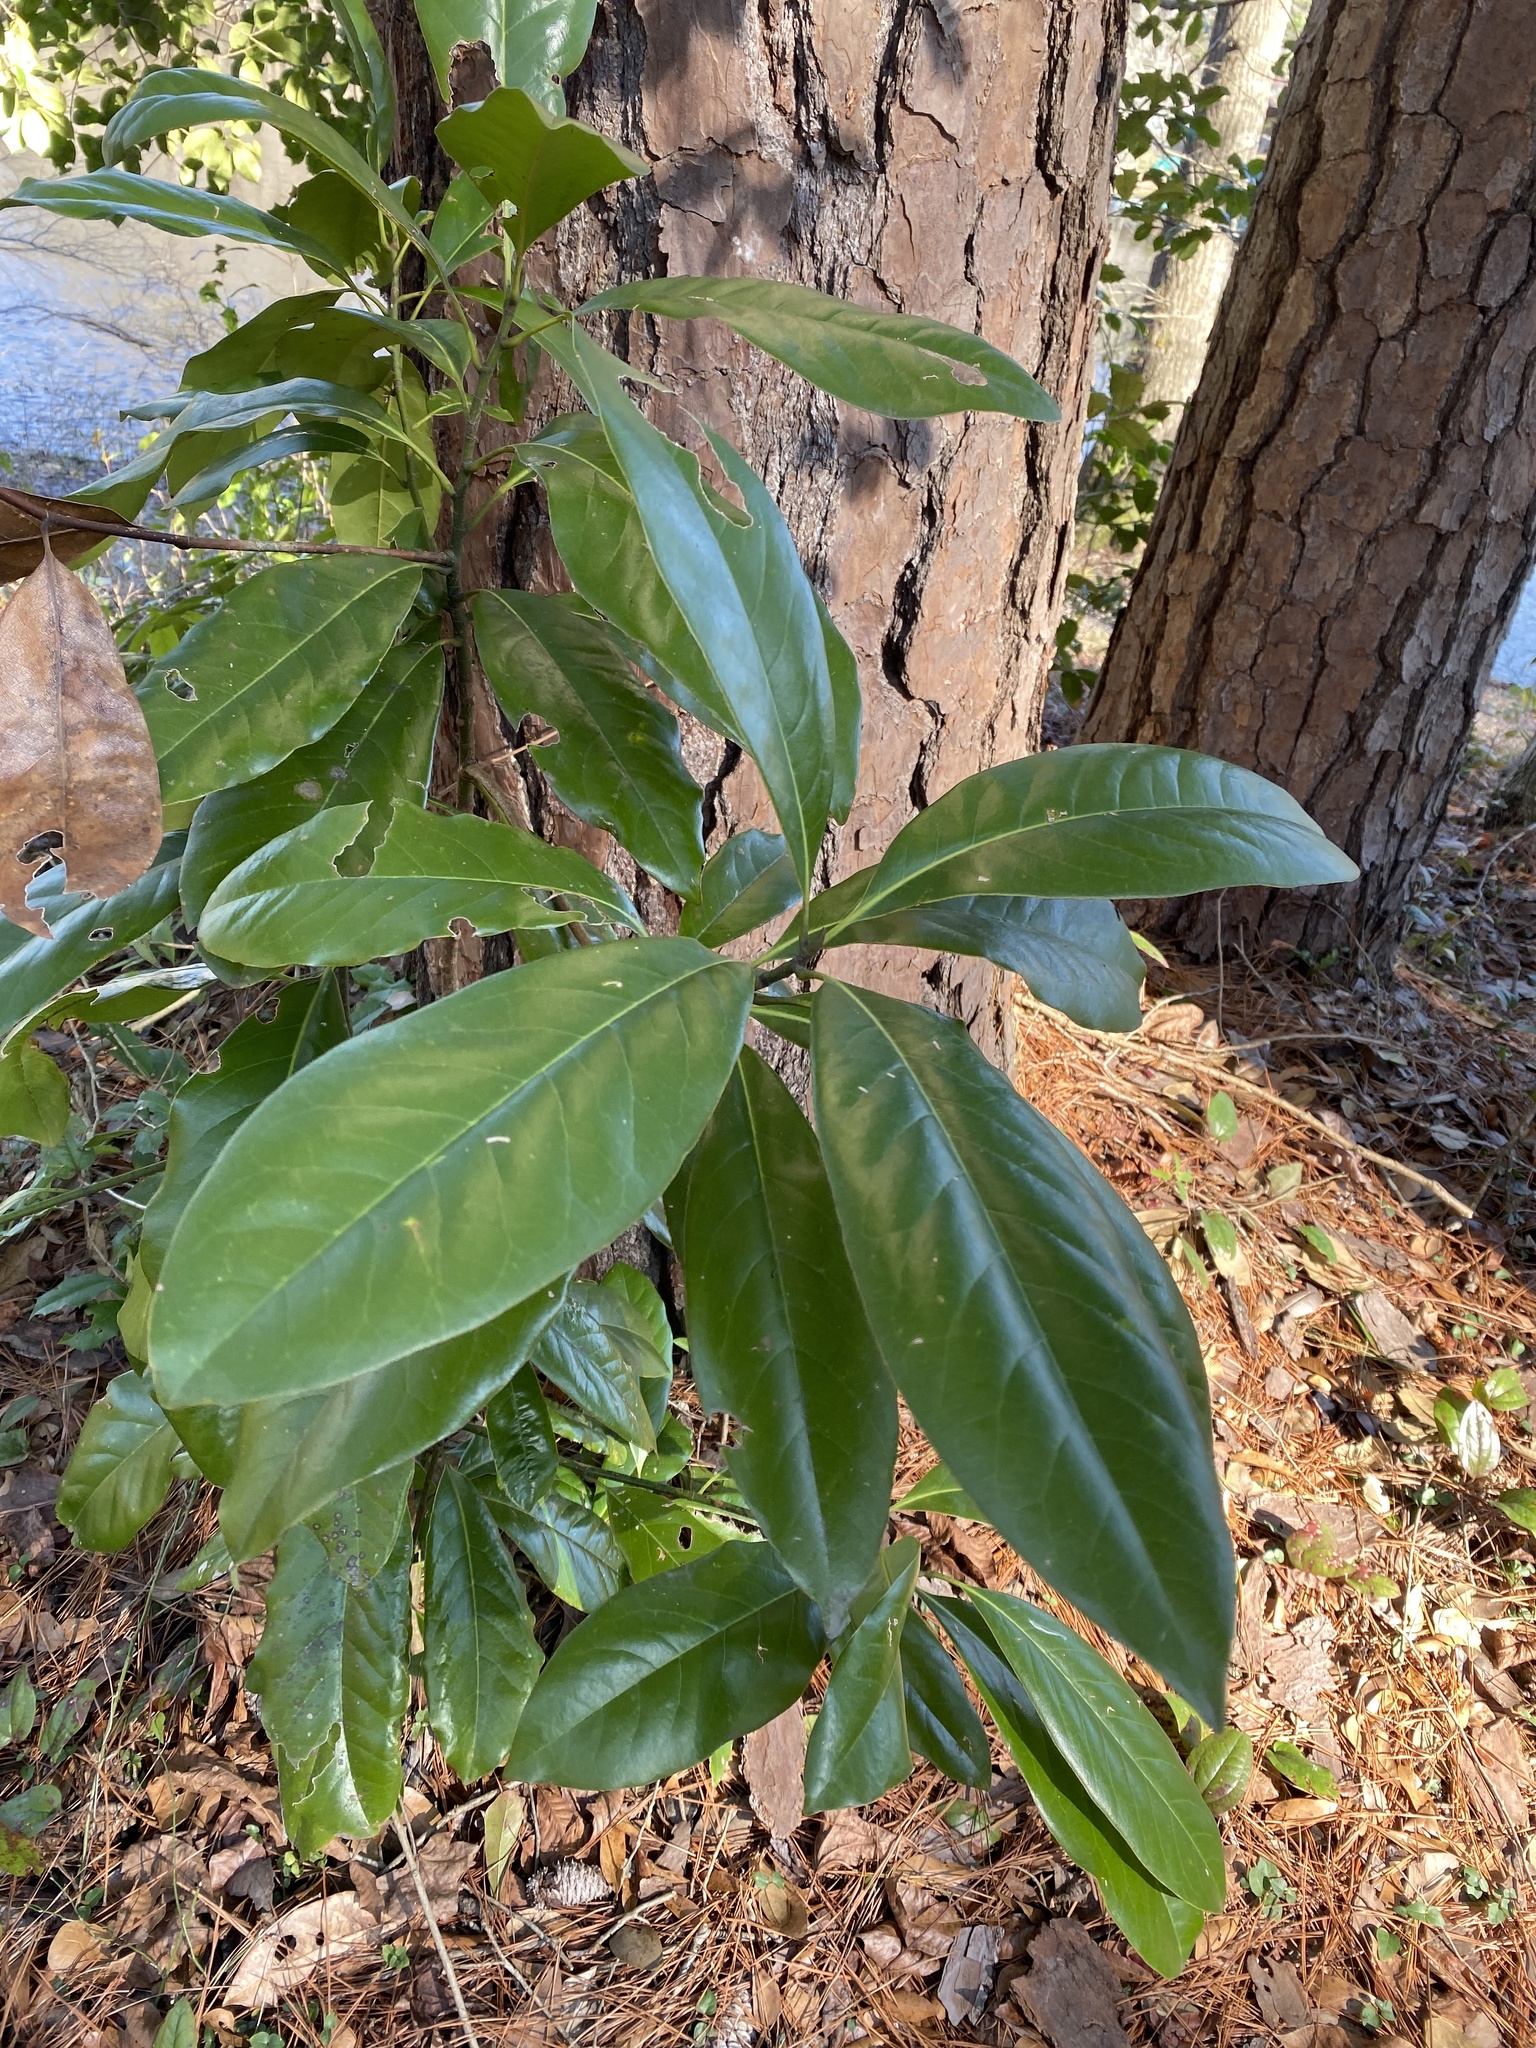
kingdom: Plantae
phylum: Tracheophyta
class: Magnoliopsida
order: Magnoliales
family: Magnoliaceae
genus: Magnolia
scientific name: Magnolia grandiflora
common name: Southern magnolia
